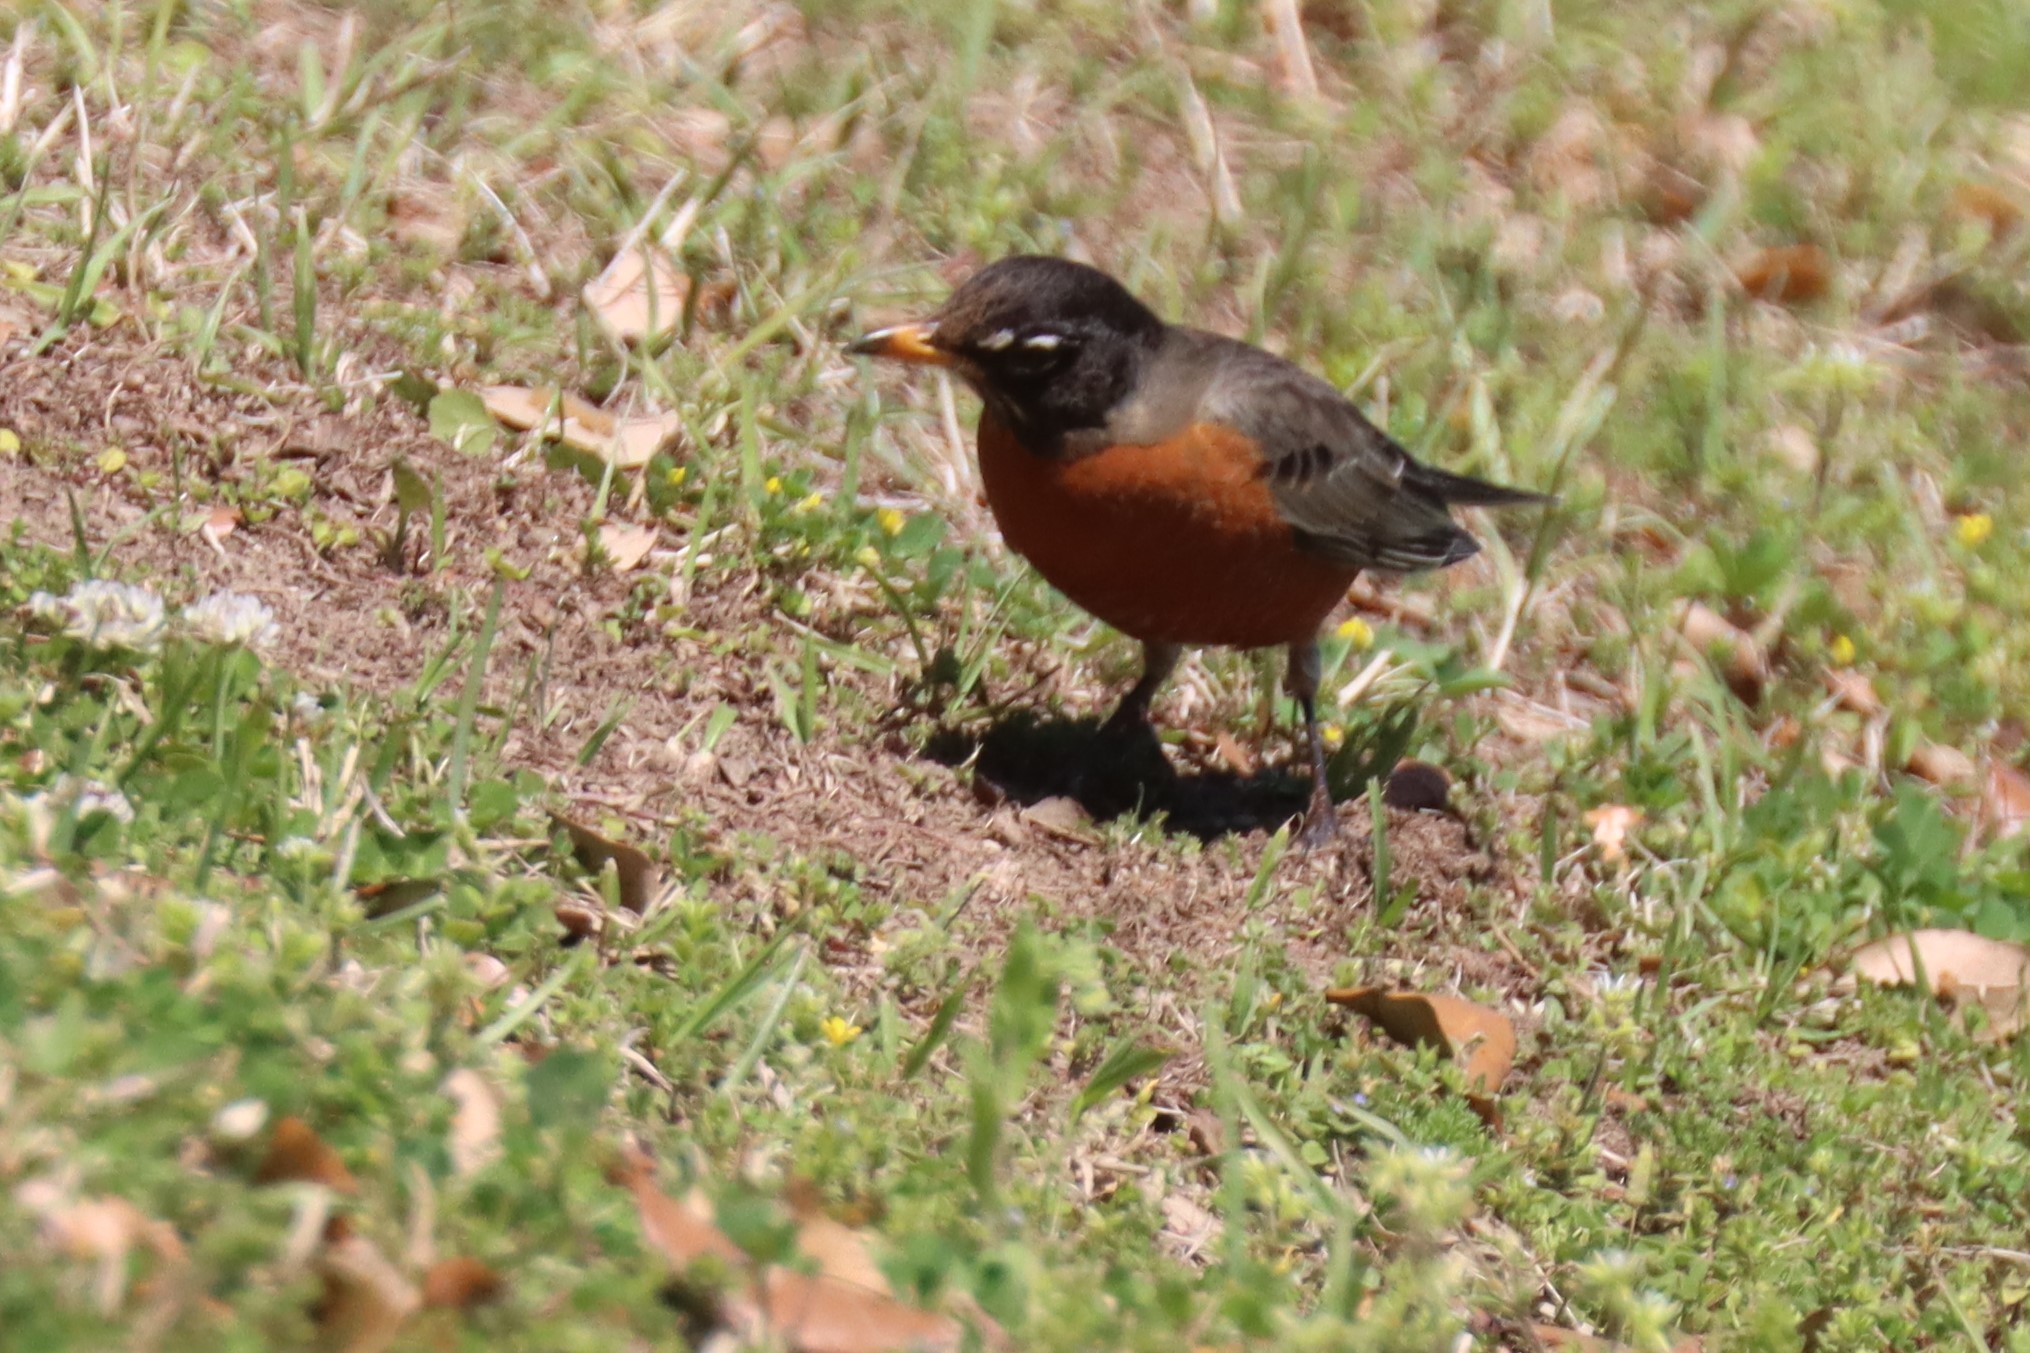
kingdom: Animalia
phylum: Chordata
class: Aves
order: Passeriformes
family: Turdidae
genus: Turdus
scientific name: Turdus migratorius
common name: American robin
